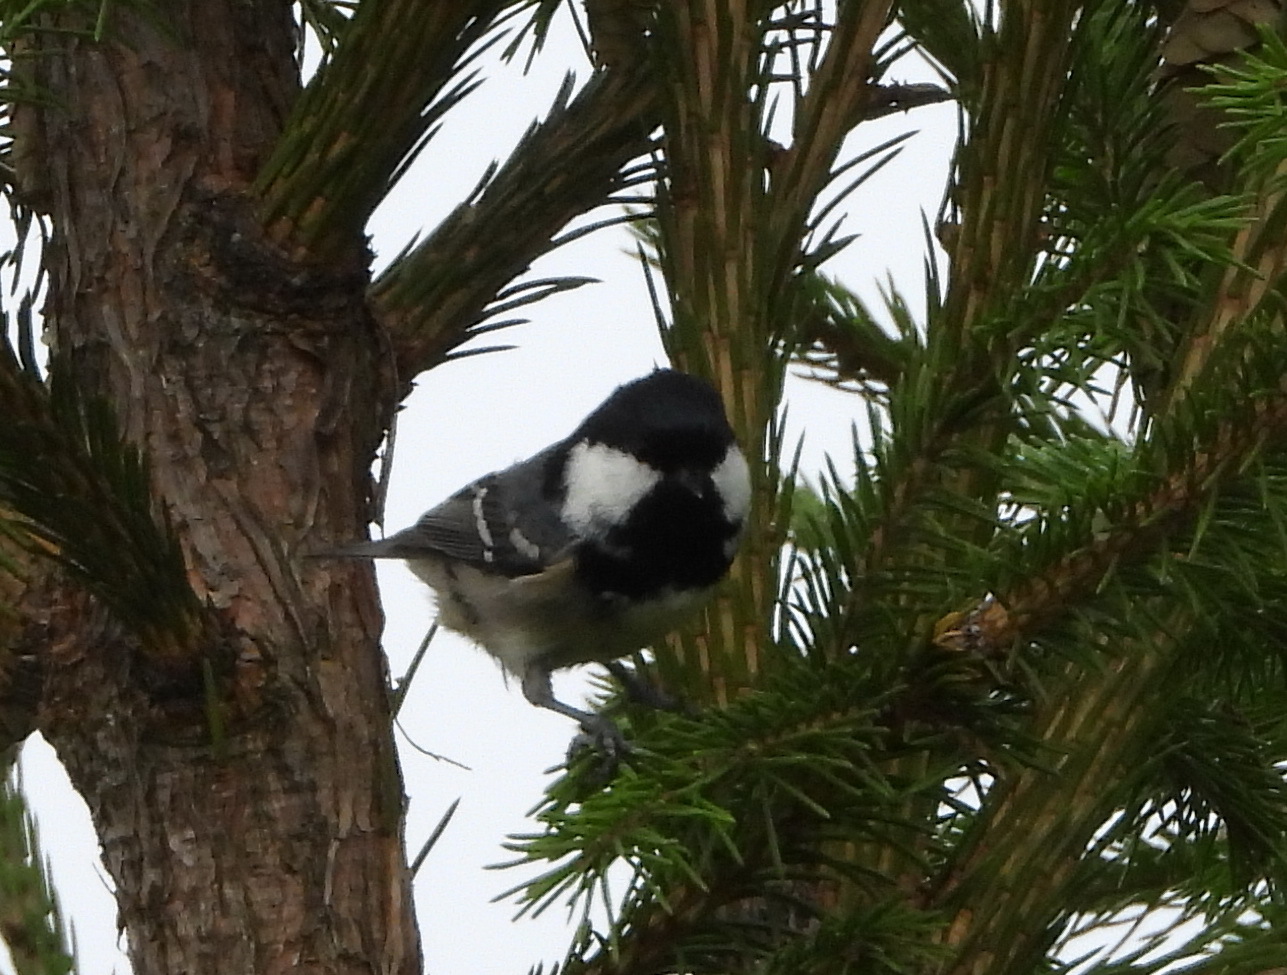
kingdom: Animalia
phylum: Chordata
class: Aves
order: Passeriformes
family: Paridae
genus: Periparus
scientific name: Periparus ater
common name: Coal tit
